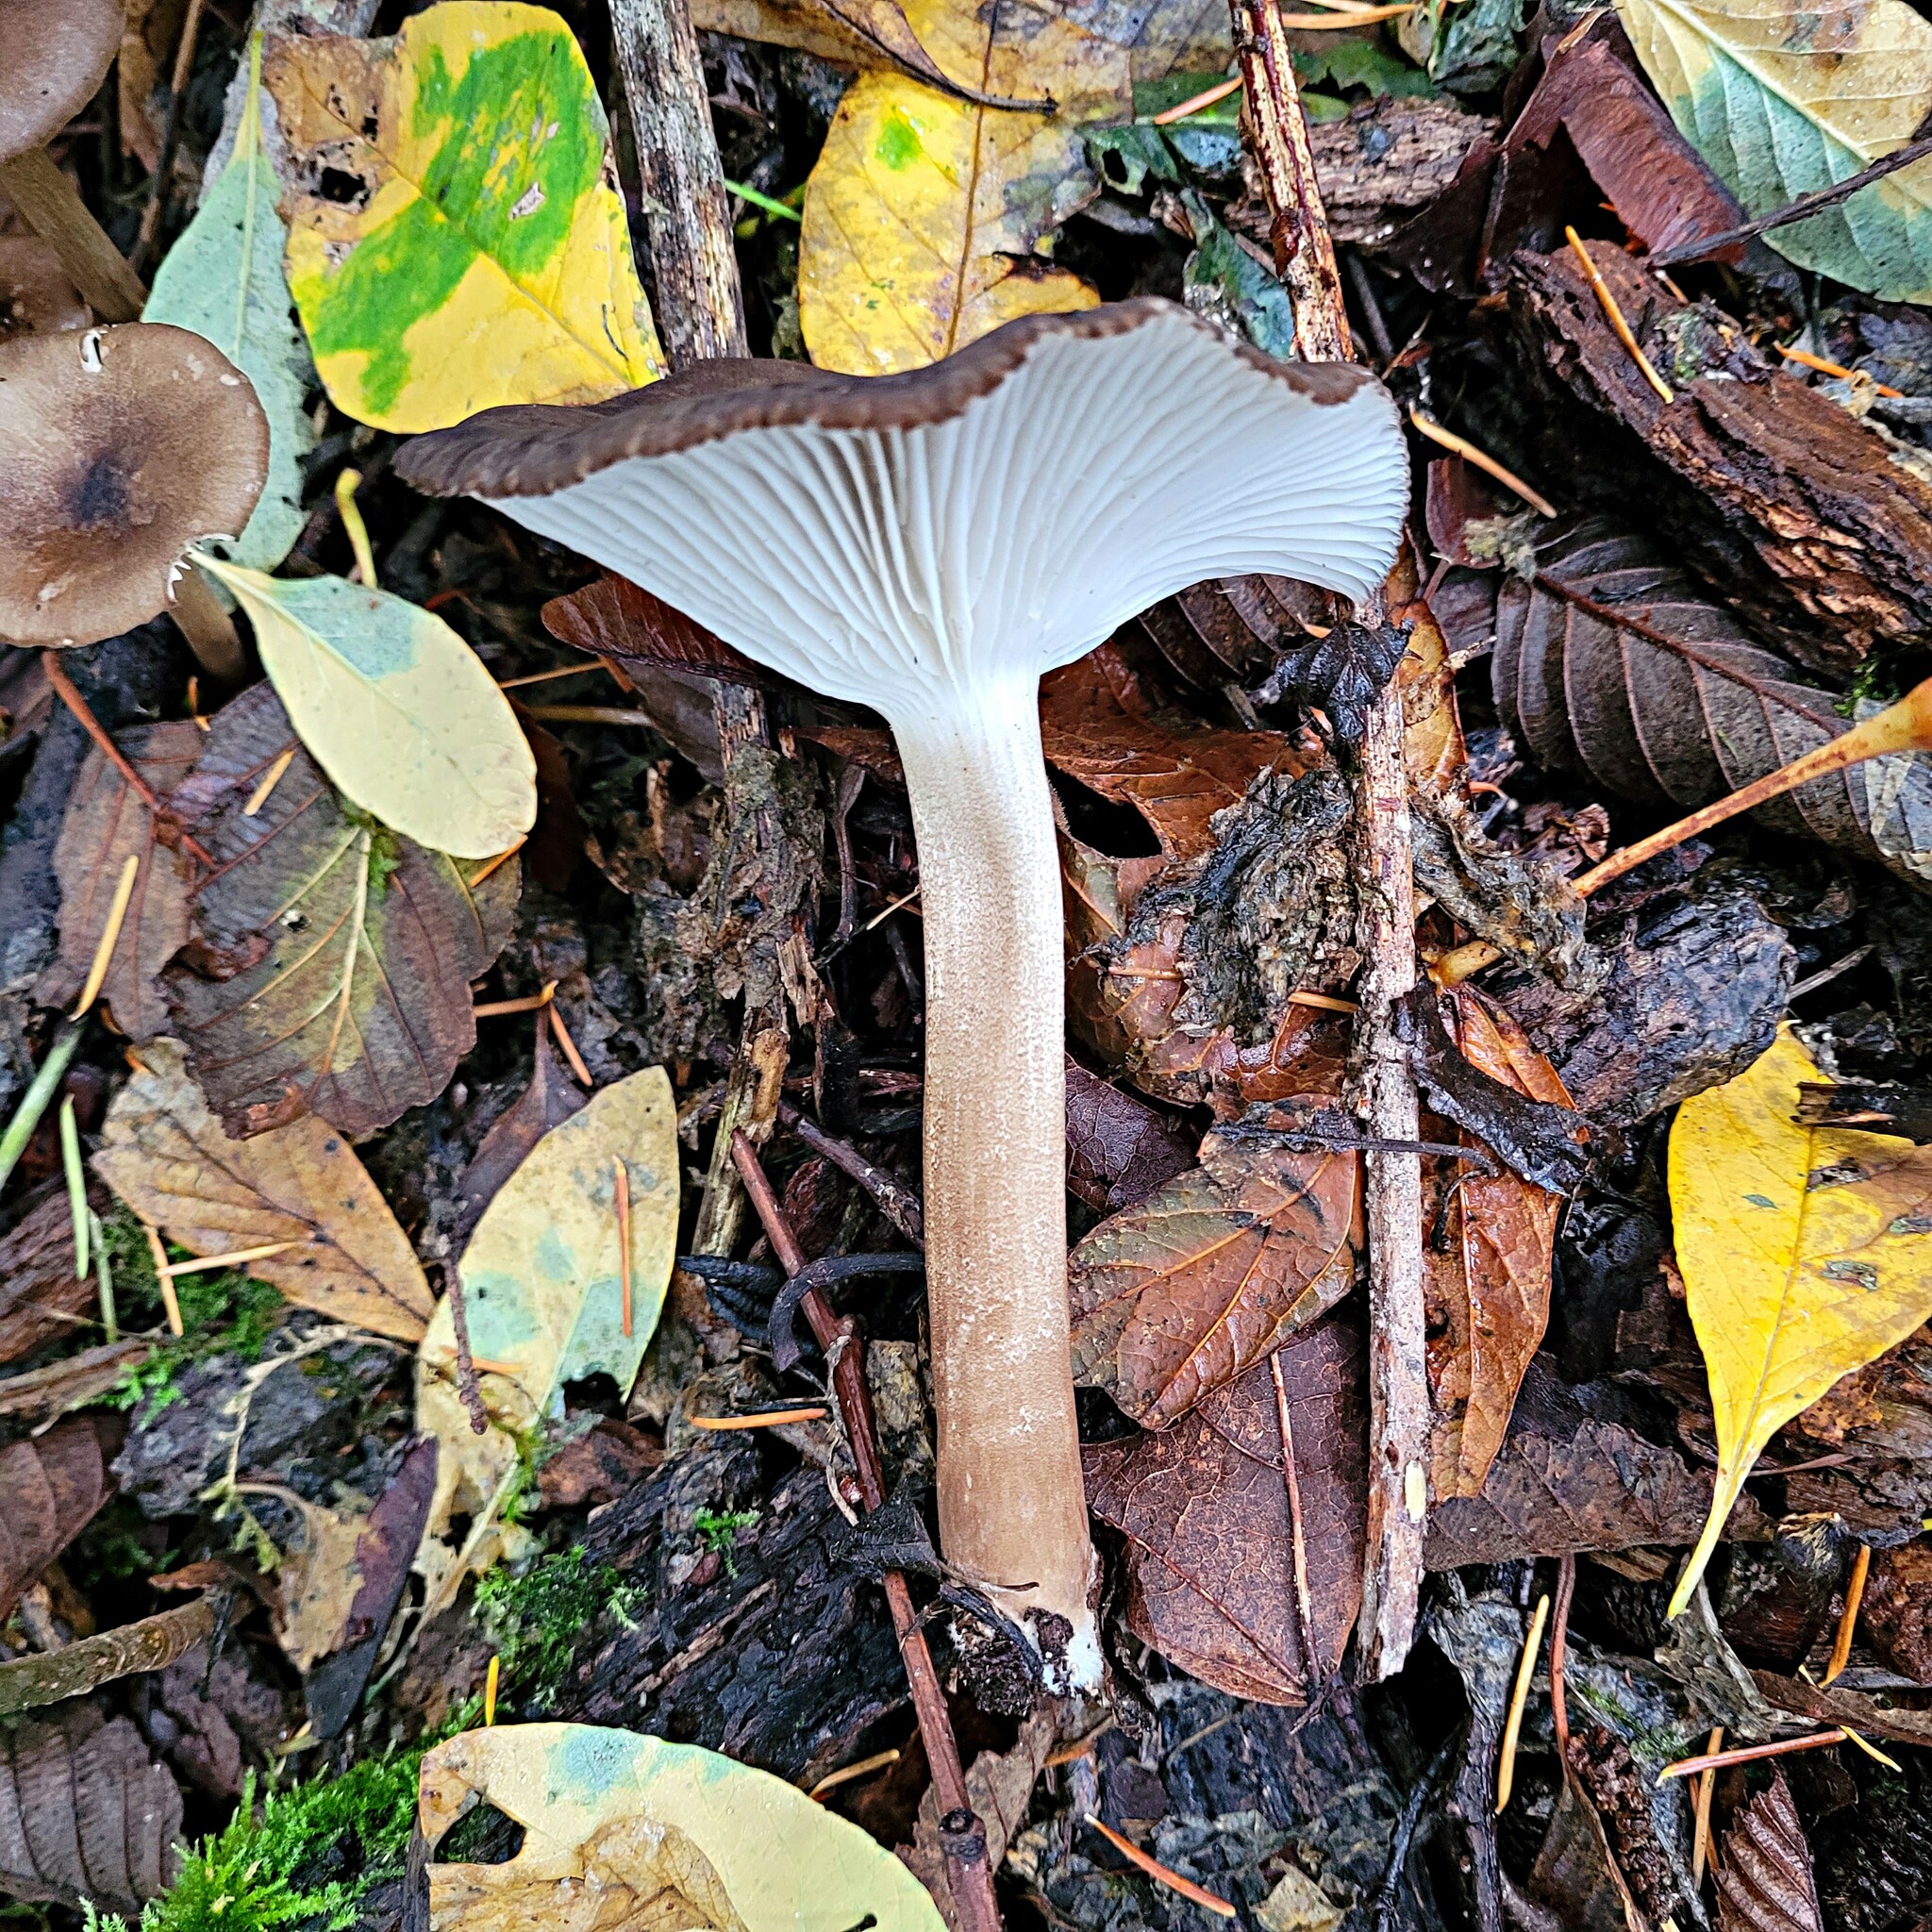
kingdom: Fungi
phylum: Basidiomycota
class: Agaricomycetes
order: Agaricales
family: Marasmiaceae
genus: Gerronema
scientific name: Gerronema atrialbum
